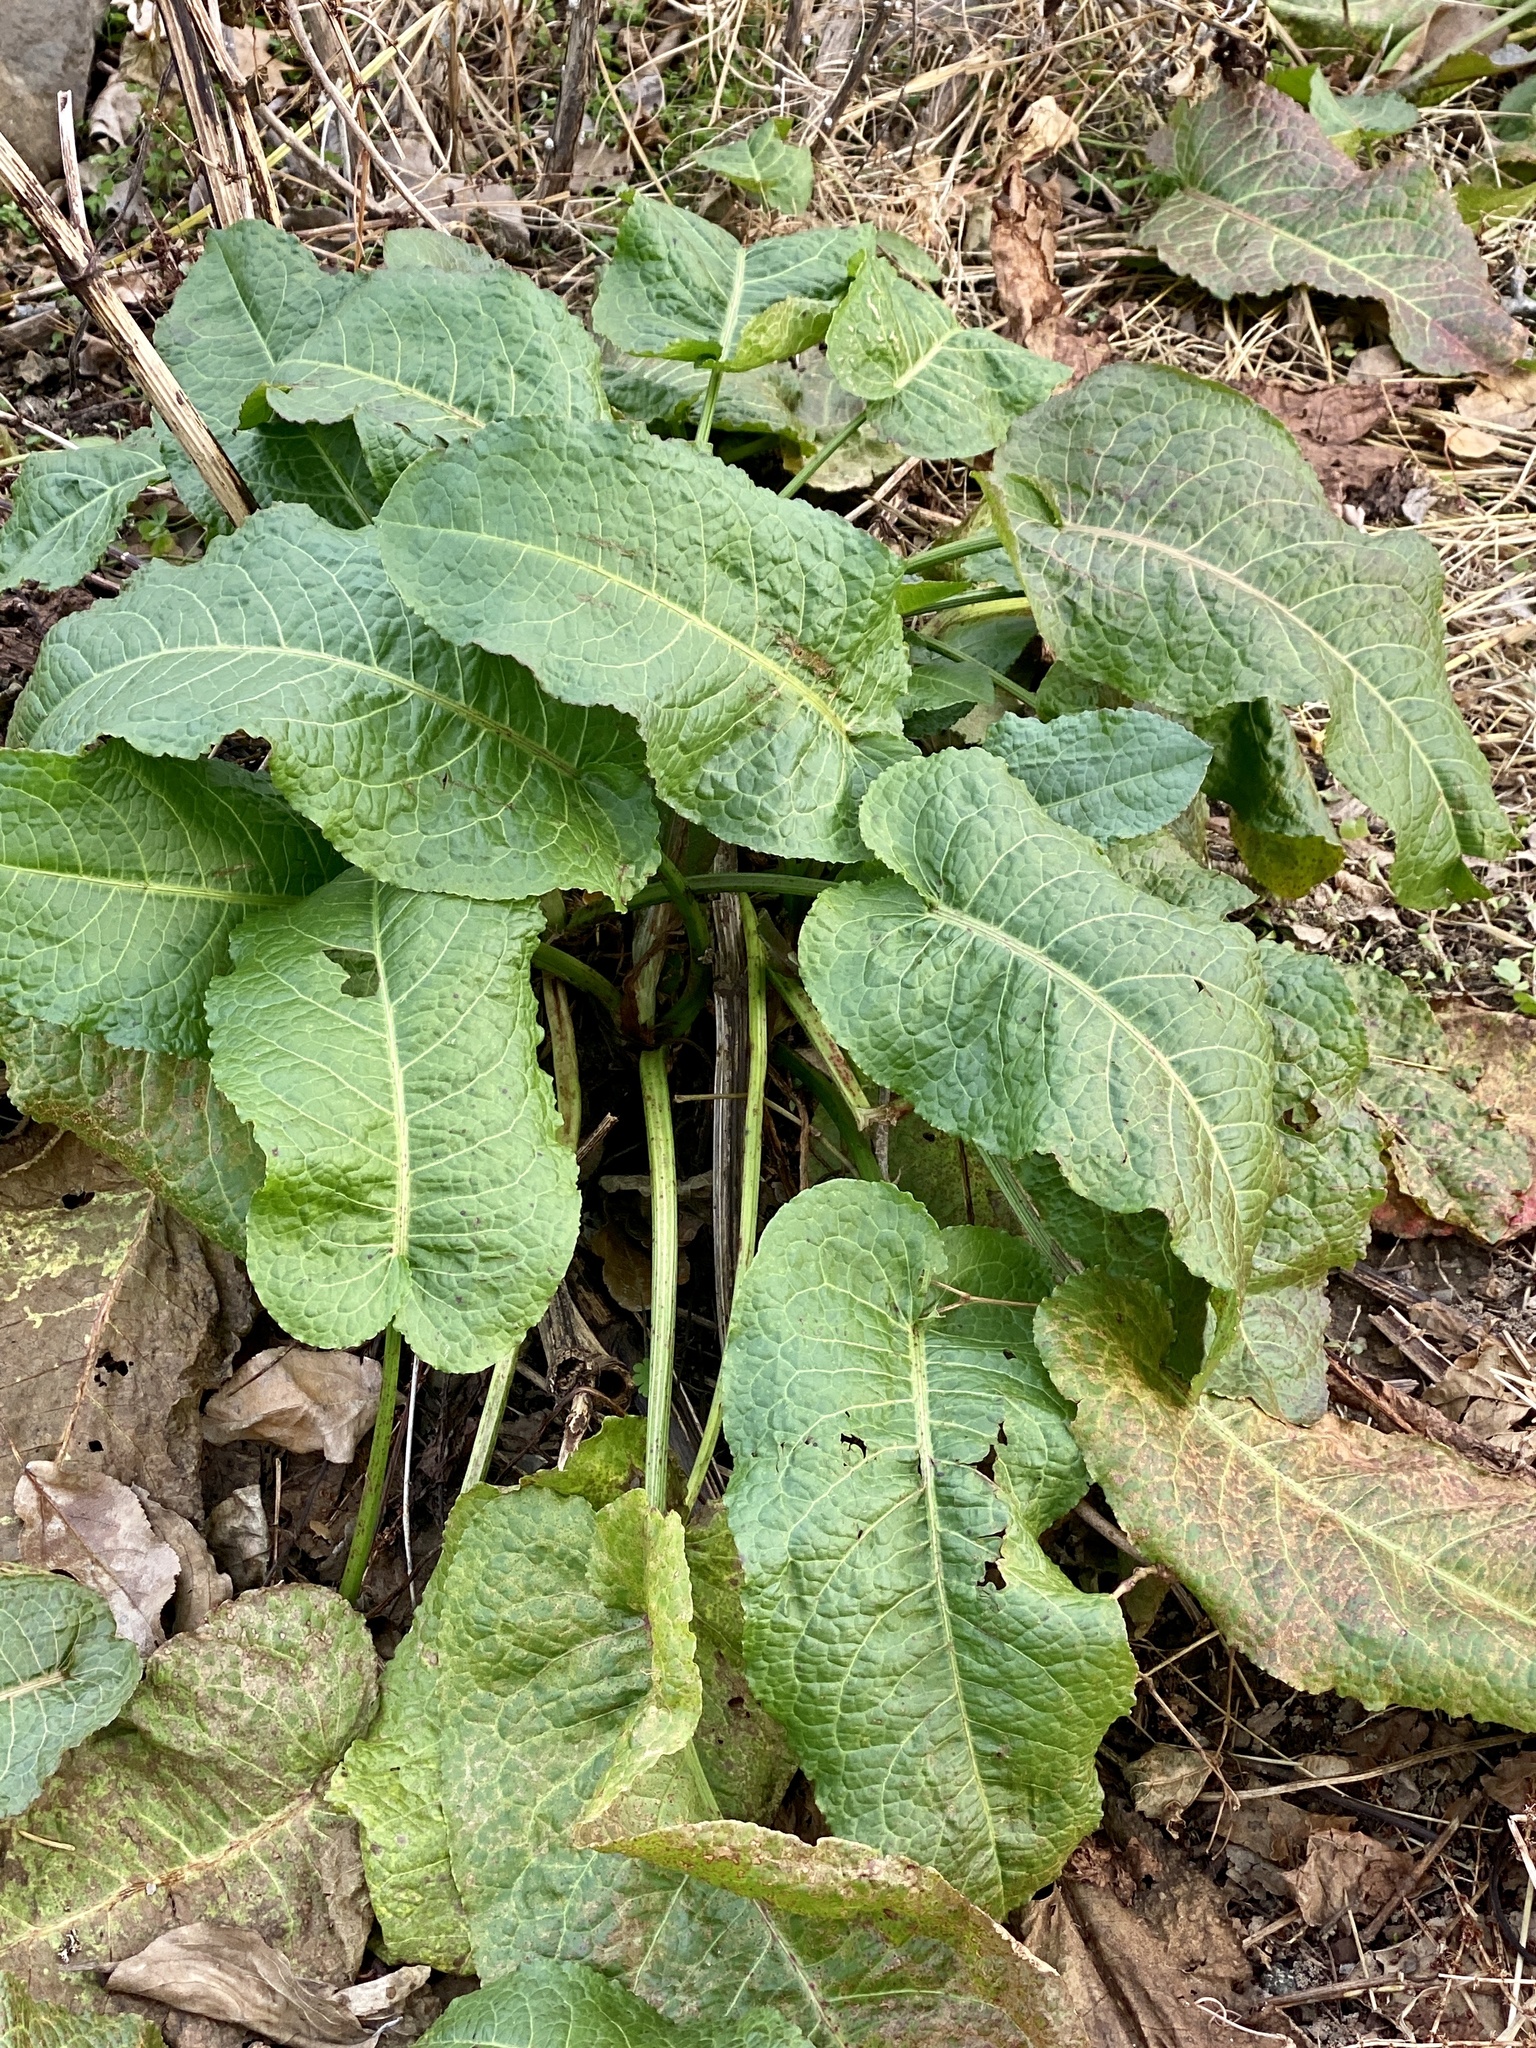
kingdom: Plantae
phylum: Tracheophyta
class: Magnoliopsida
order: Caryophyllales
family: Polygonaceae
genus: Rumex
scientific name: Rumex obtusifolius
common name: Bitter dock
